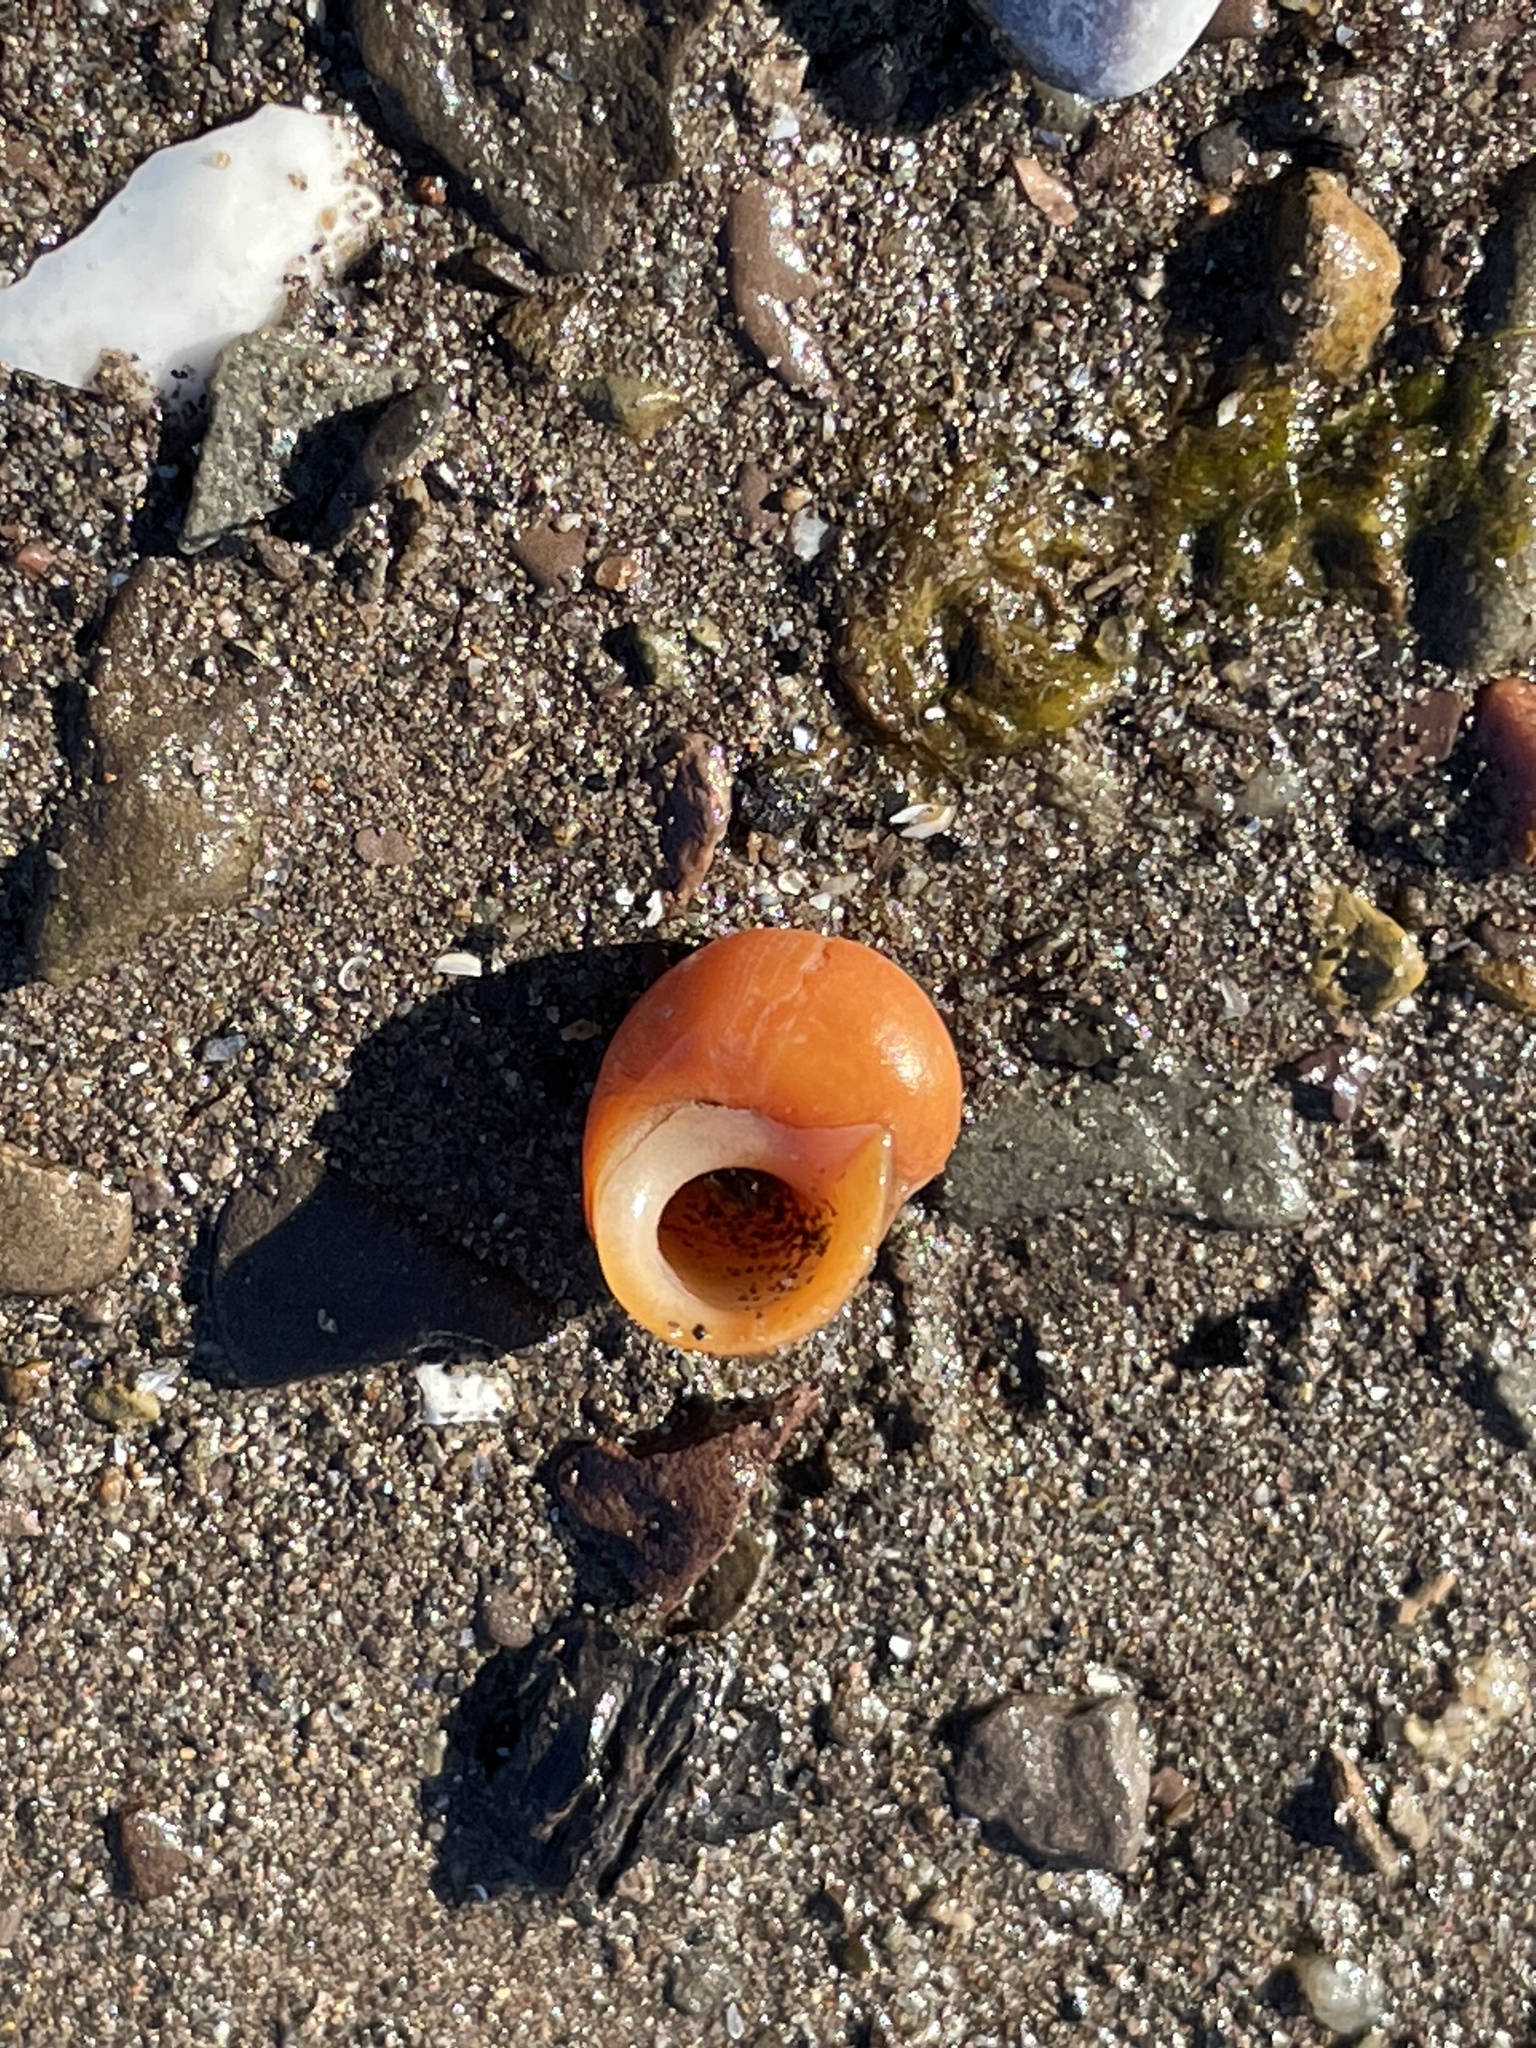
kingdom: Animalia
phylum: Mollusca
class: Gastropoda
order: Littorinimorpha
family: Littorinidae
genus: Littorina
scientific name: Littorina obtusata
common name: Flat periwinkle
